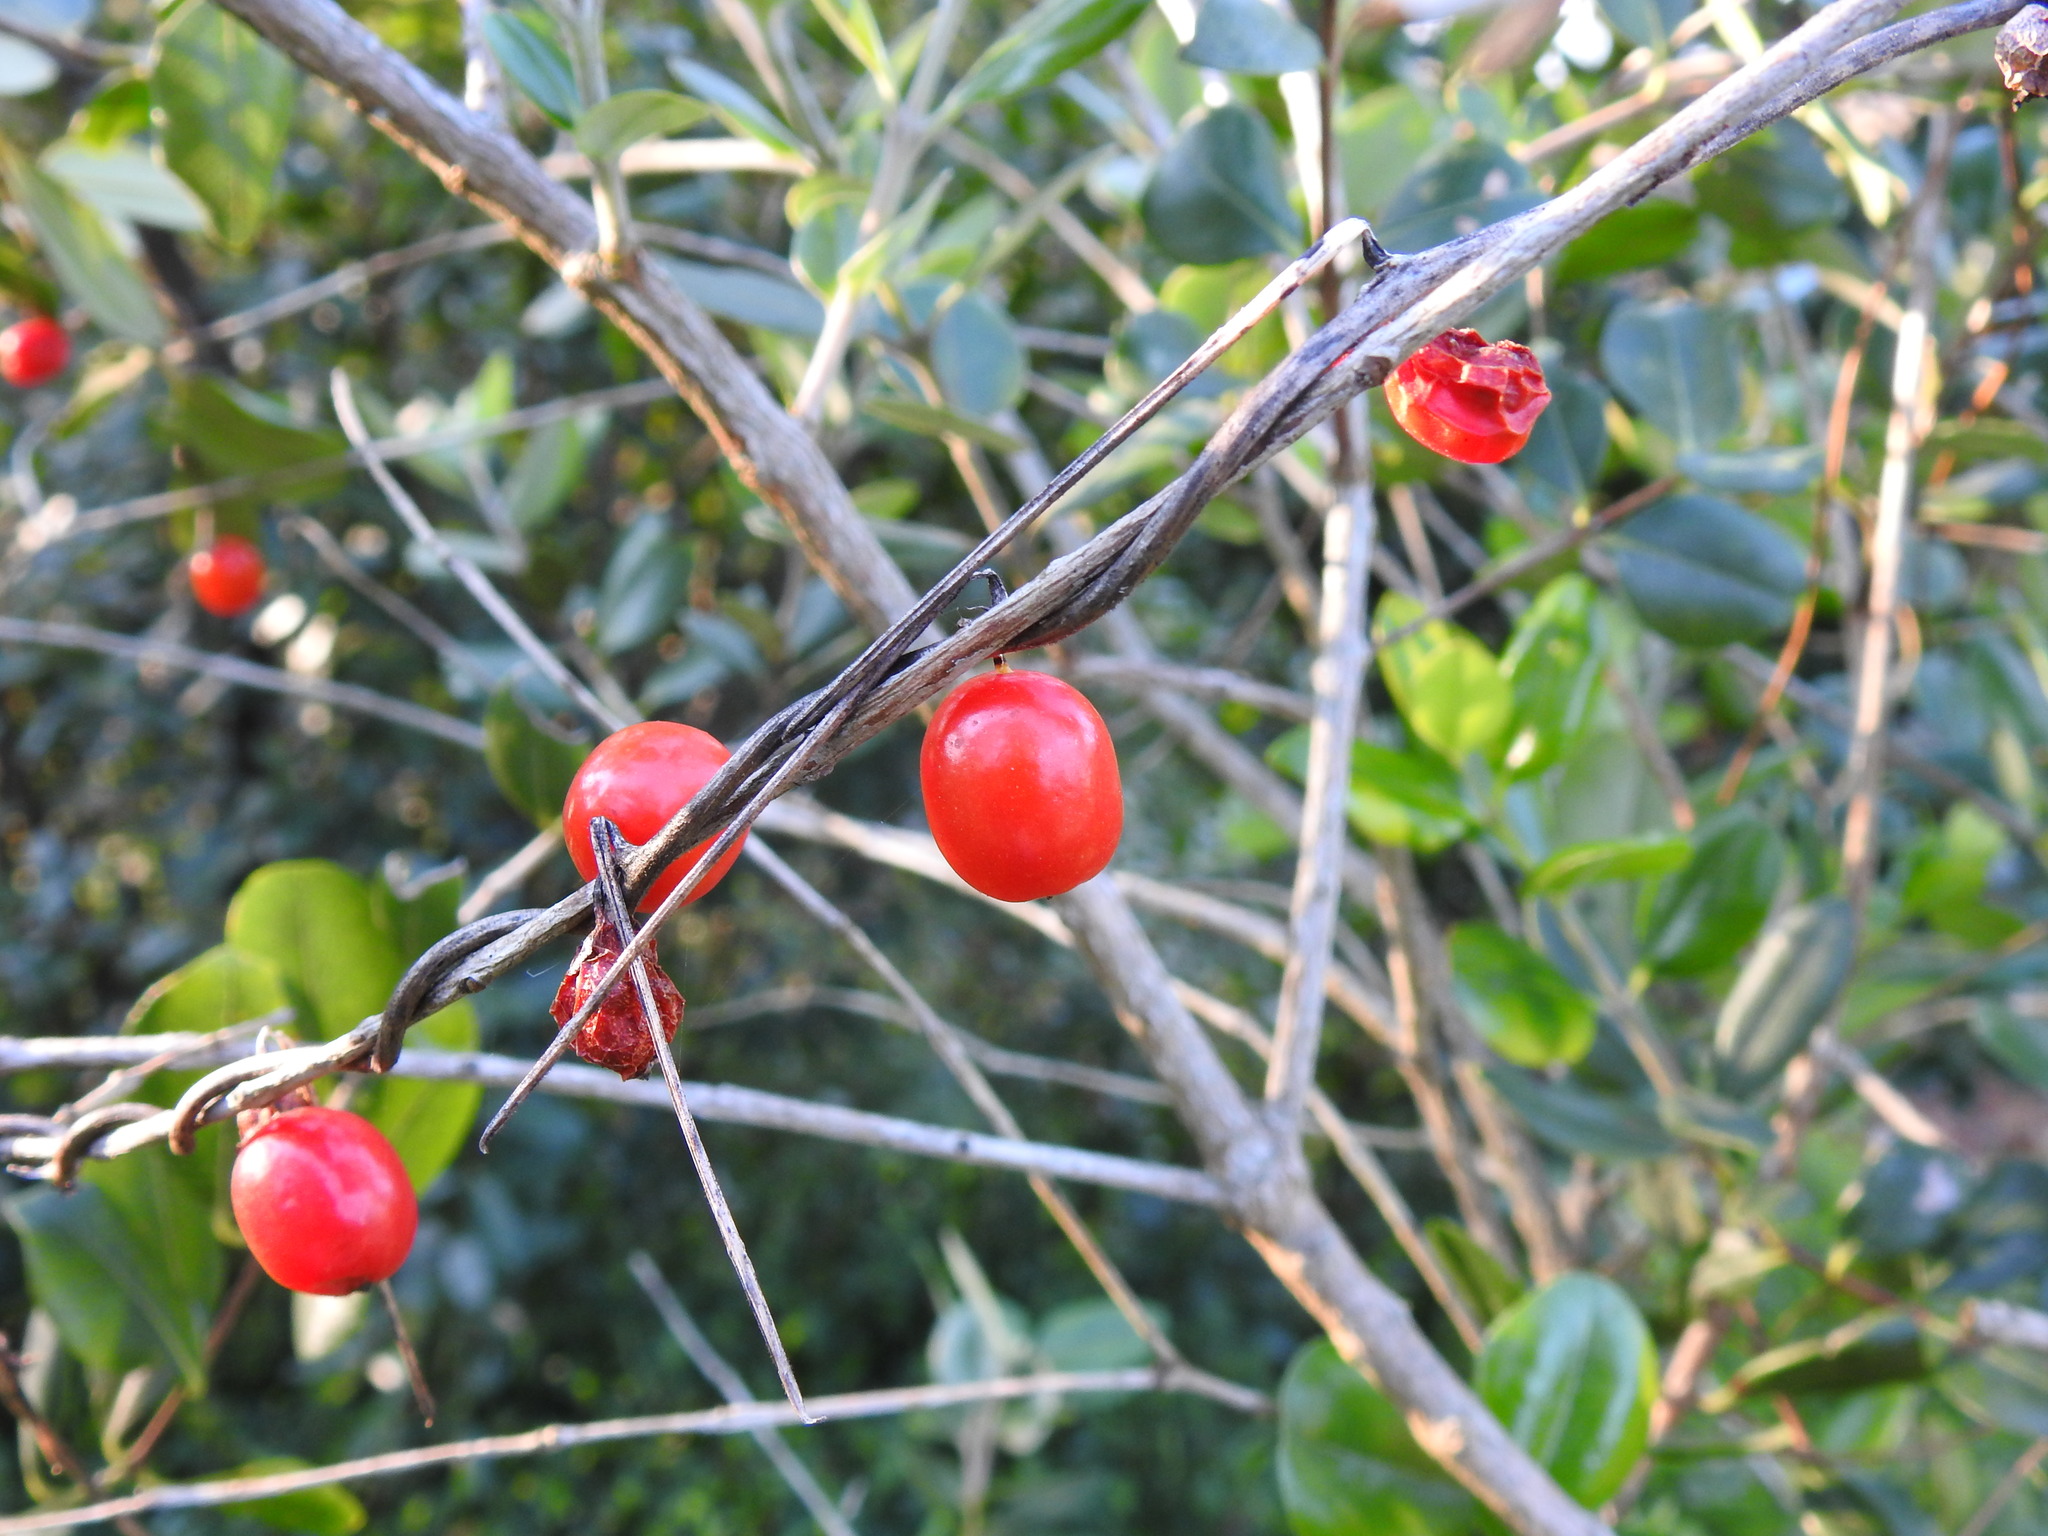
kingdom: Plantae
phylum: Tracheophyta
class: Liliopsida
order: Dioscoreales
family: Dioscoreaceae
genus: Dioscorea
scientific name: Dioscorea communis
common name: Black-bindweed
